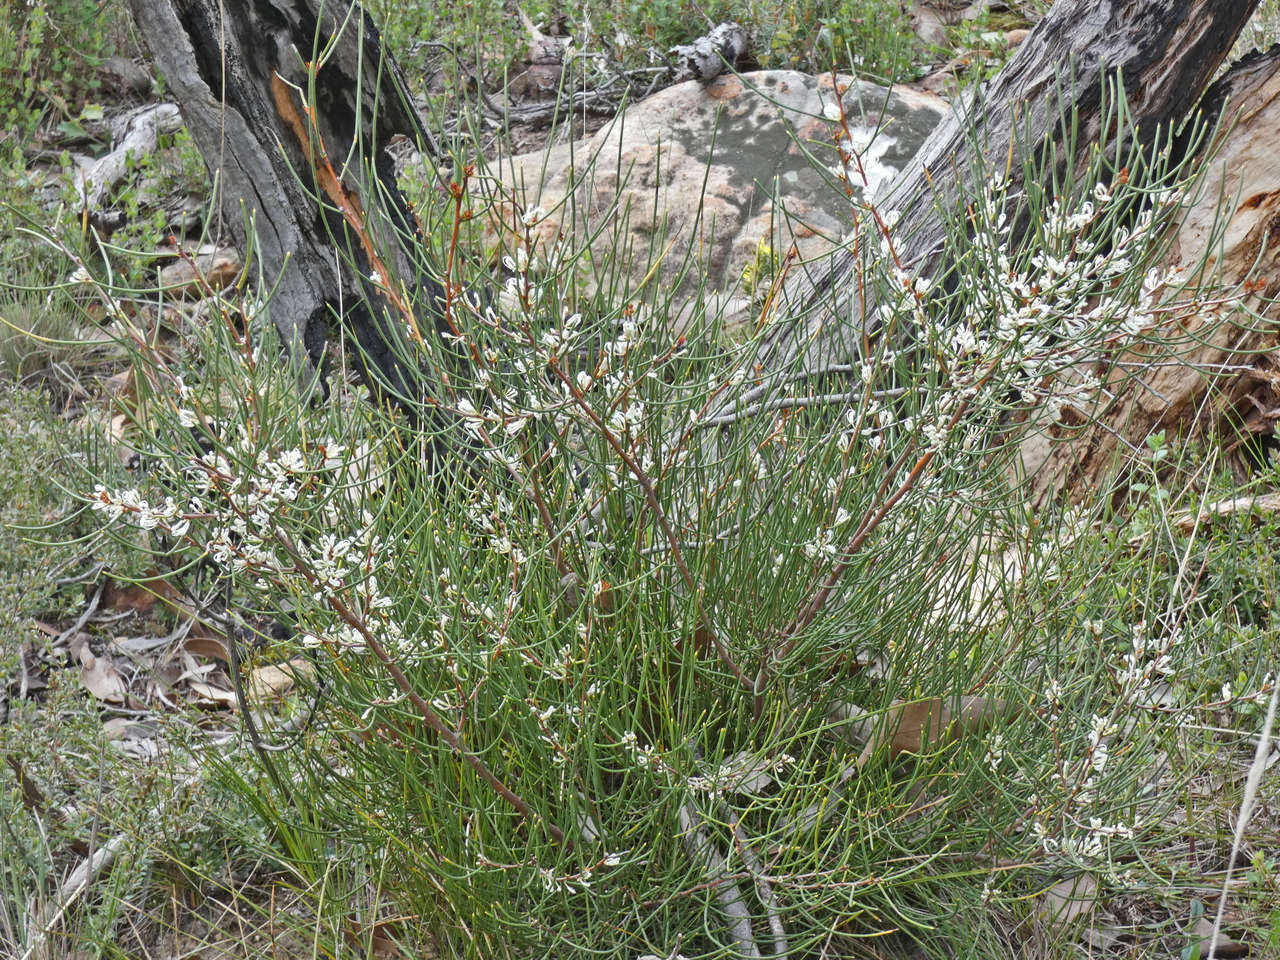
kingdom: Plantae
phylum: Tracheophyta
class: Magnoliopsida
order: Proteales
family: Proteaceae
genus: Hakea
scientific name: Hakea rostrata
